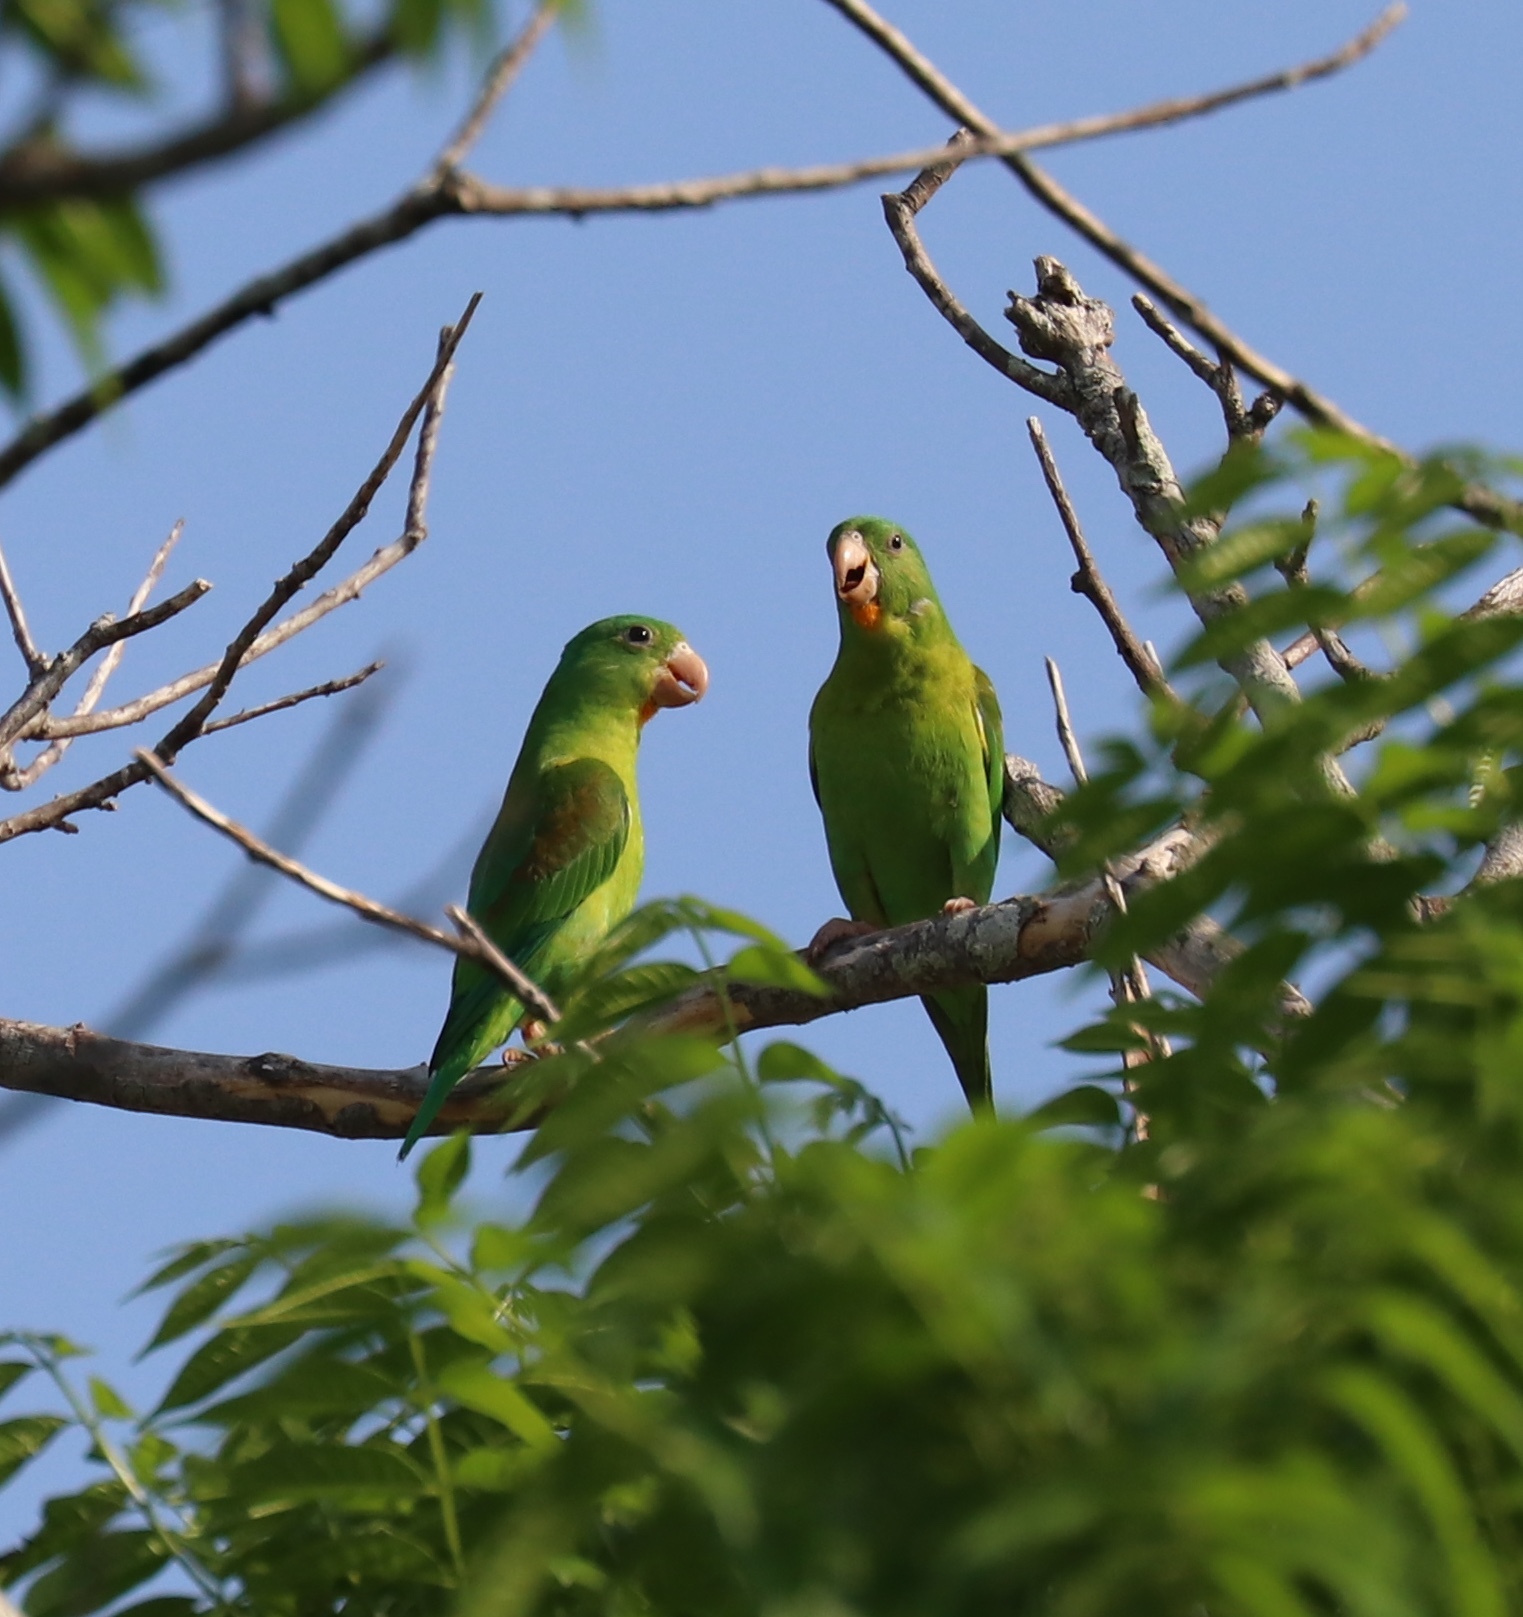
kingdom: Animalia
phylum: Chordata
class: Aves
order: Psittaciformes
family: Psittacidae
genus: Brotogeris
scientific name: Brotogeris jugularis
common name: Orange-chinned parakeet
